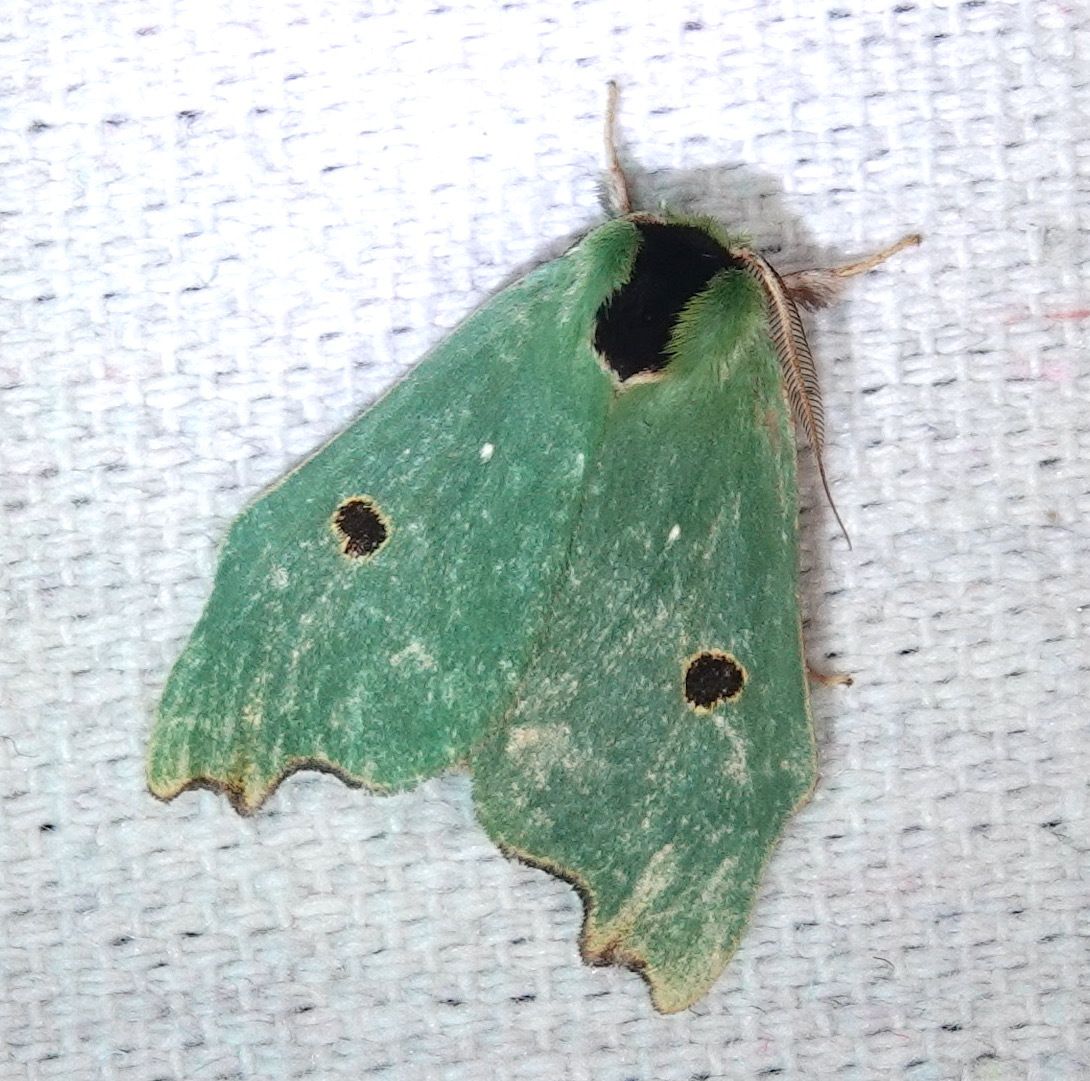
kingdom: Animalia
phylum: Arthropoda
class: Insecta
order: Lepidoptera
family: Notodontidae
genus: Rosema
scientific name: Rosema melini
